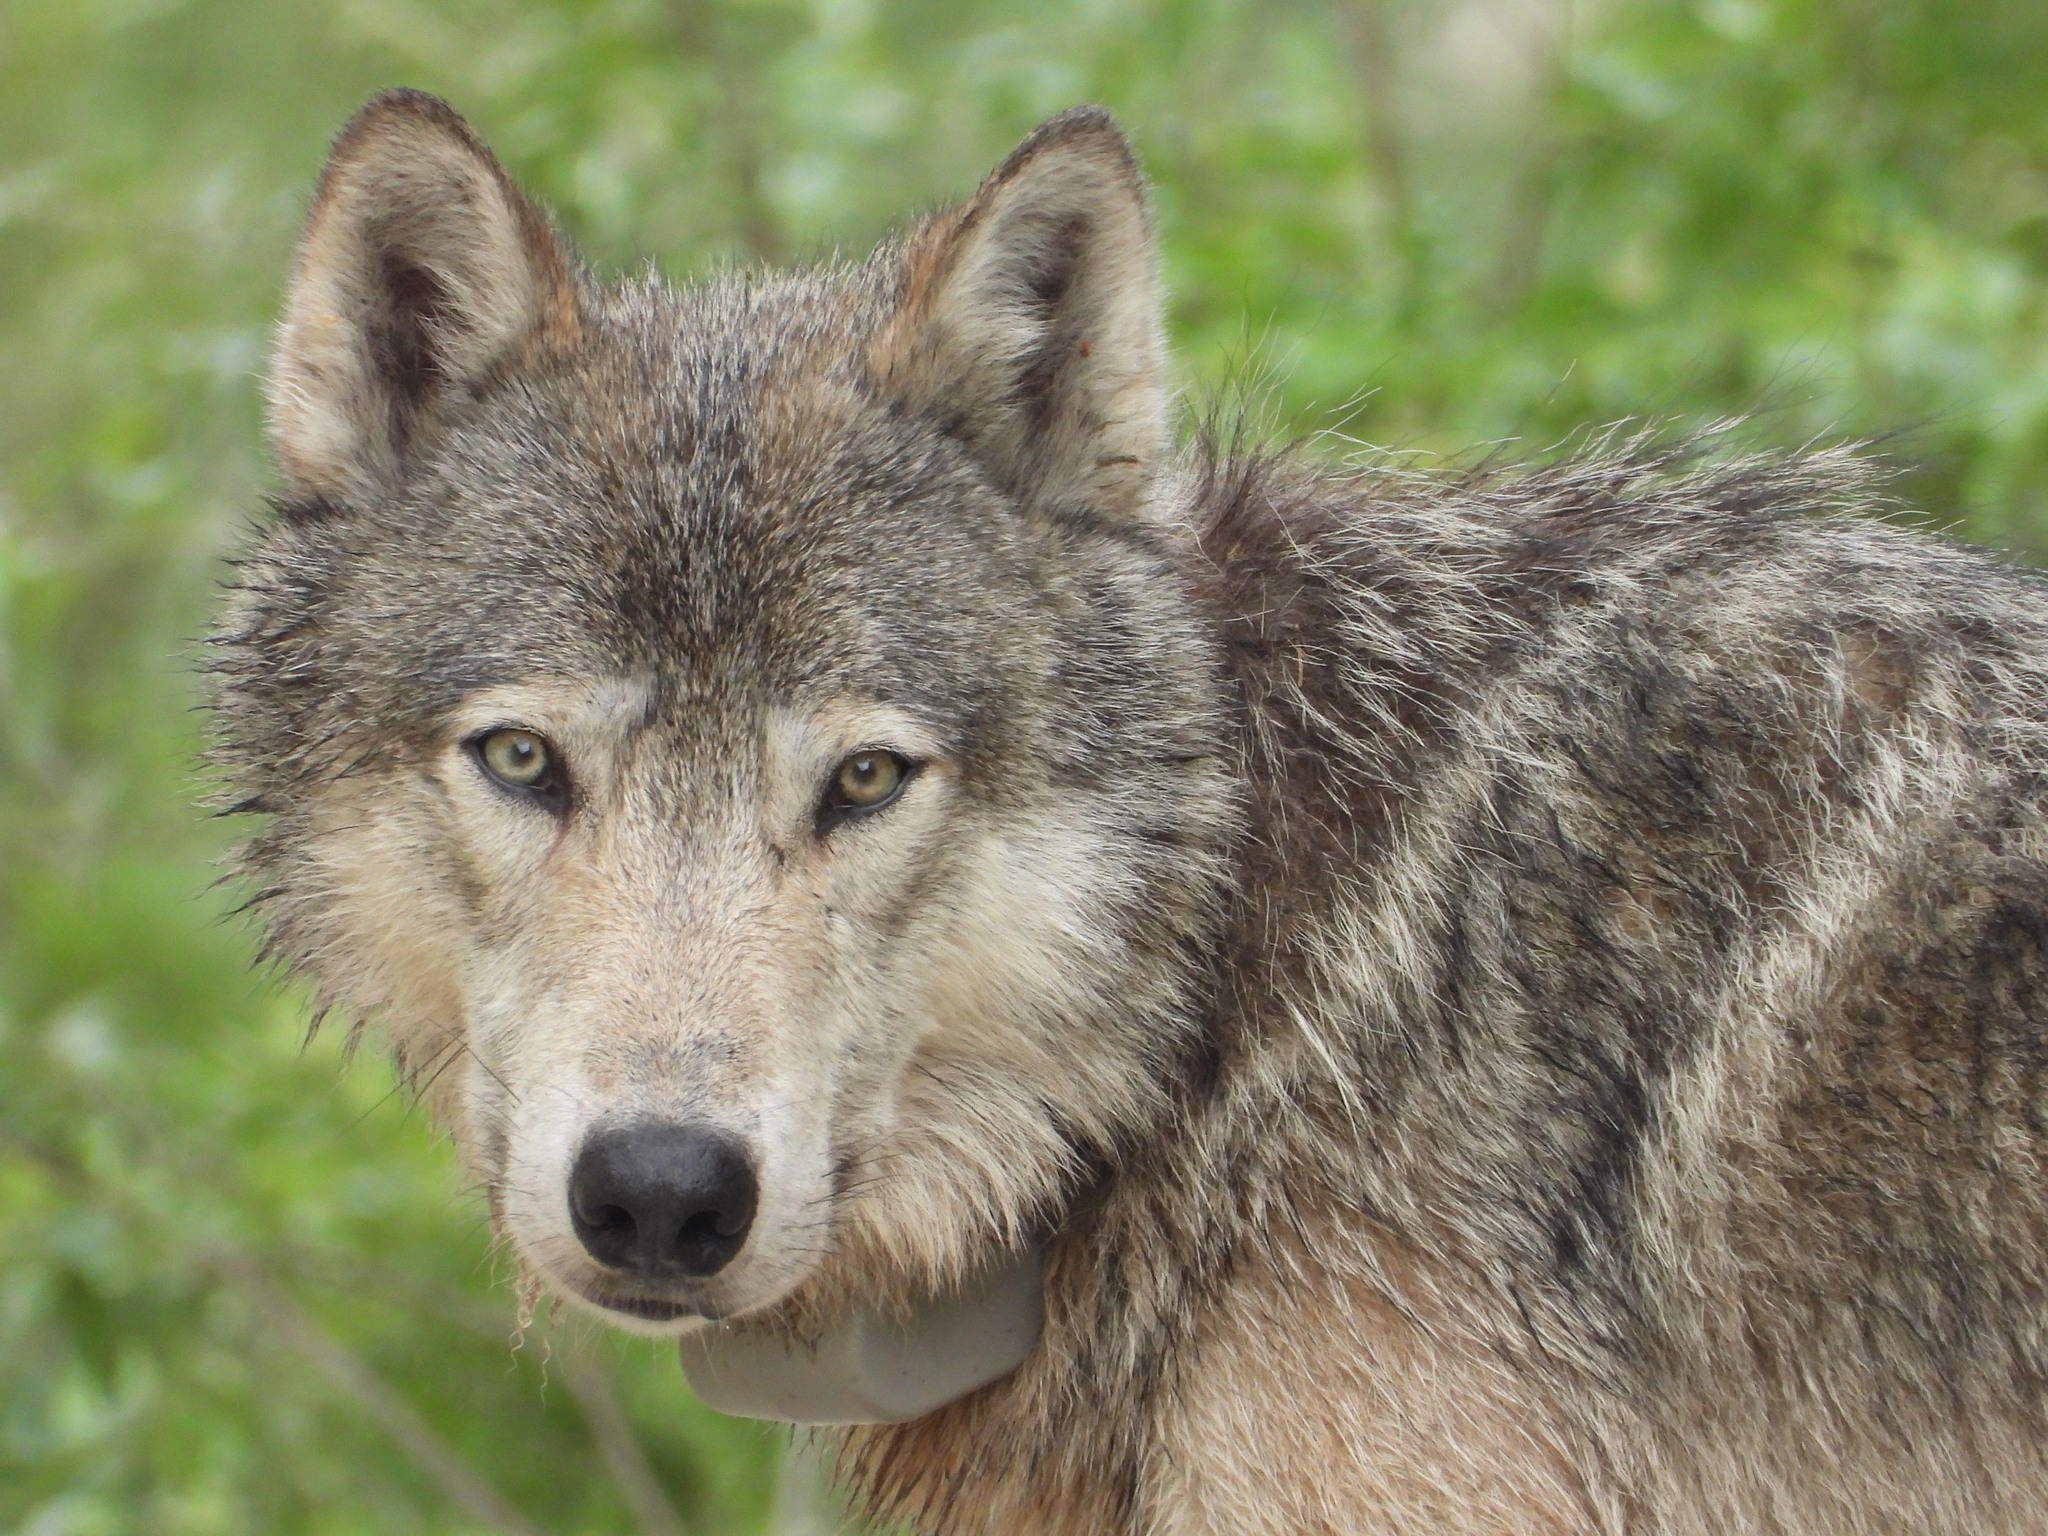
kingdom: Animalia
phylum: Chordata
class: Mammalia
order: Carnivora
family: Canidae
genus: Canis
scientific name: Canis lupus
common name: Gray wolf
